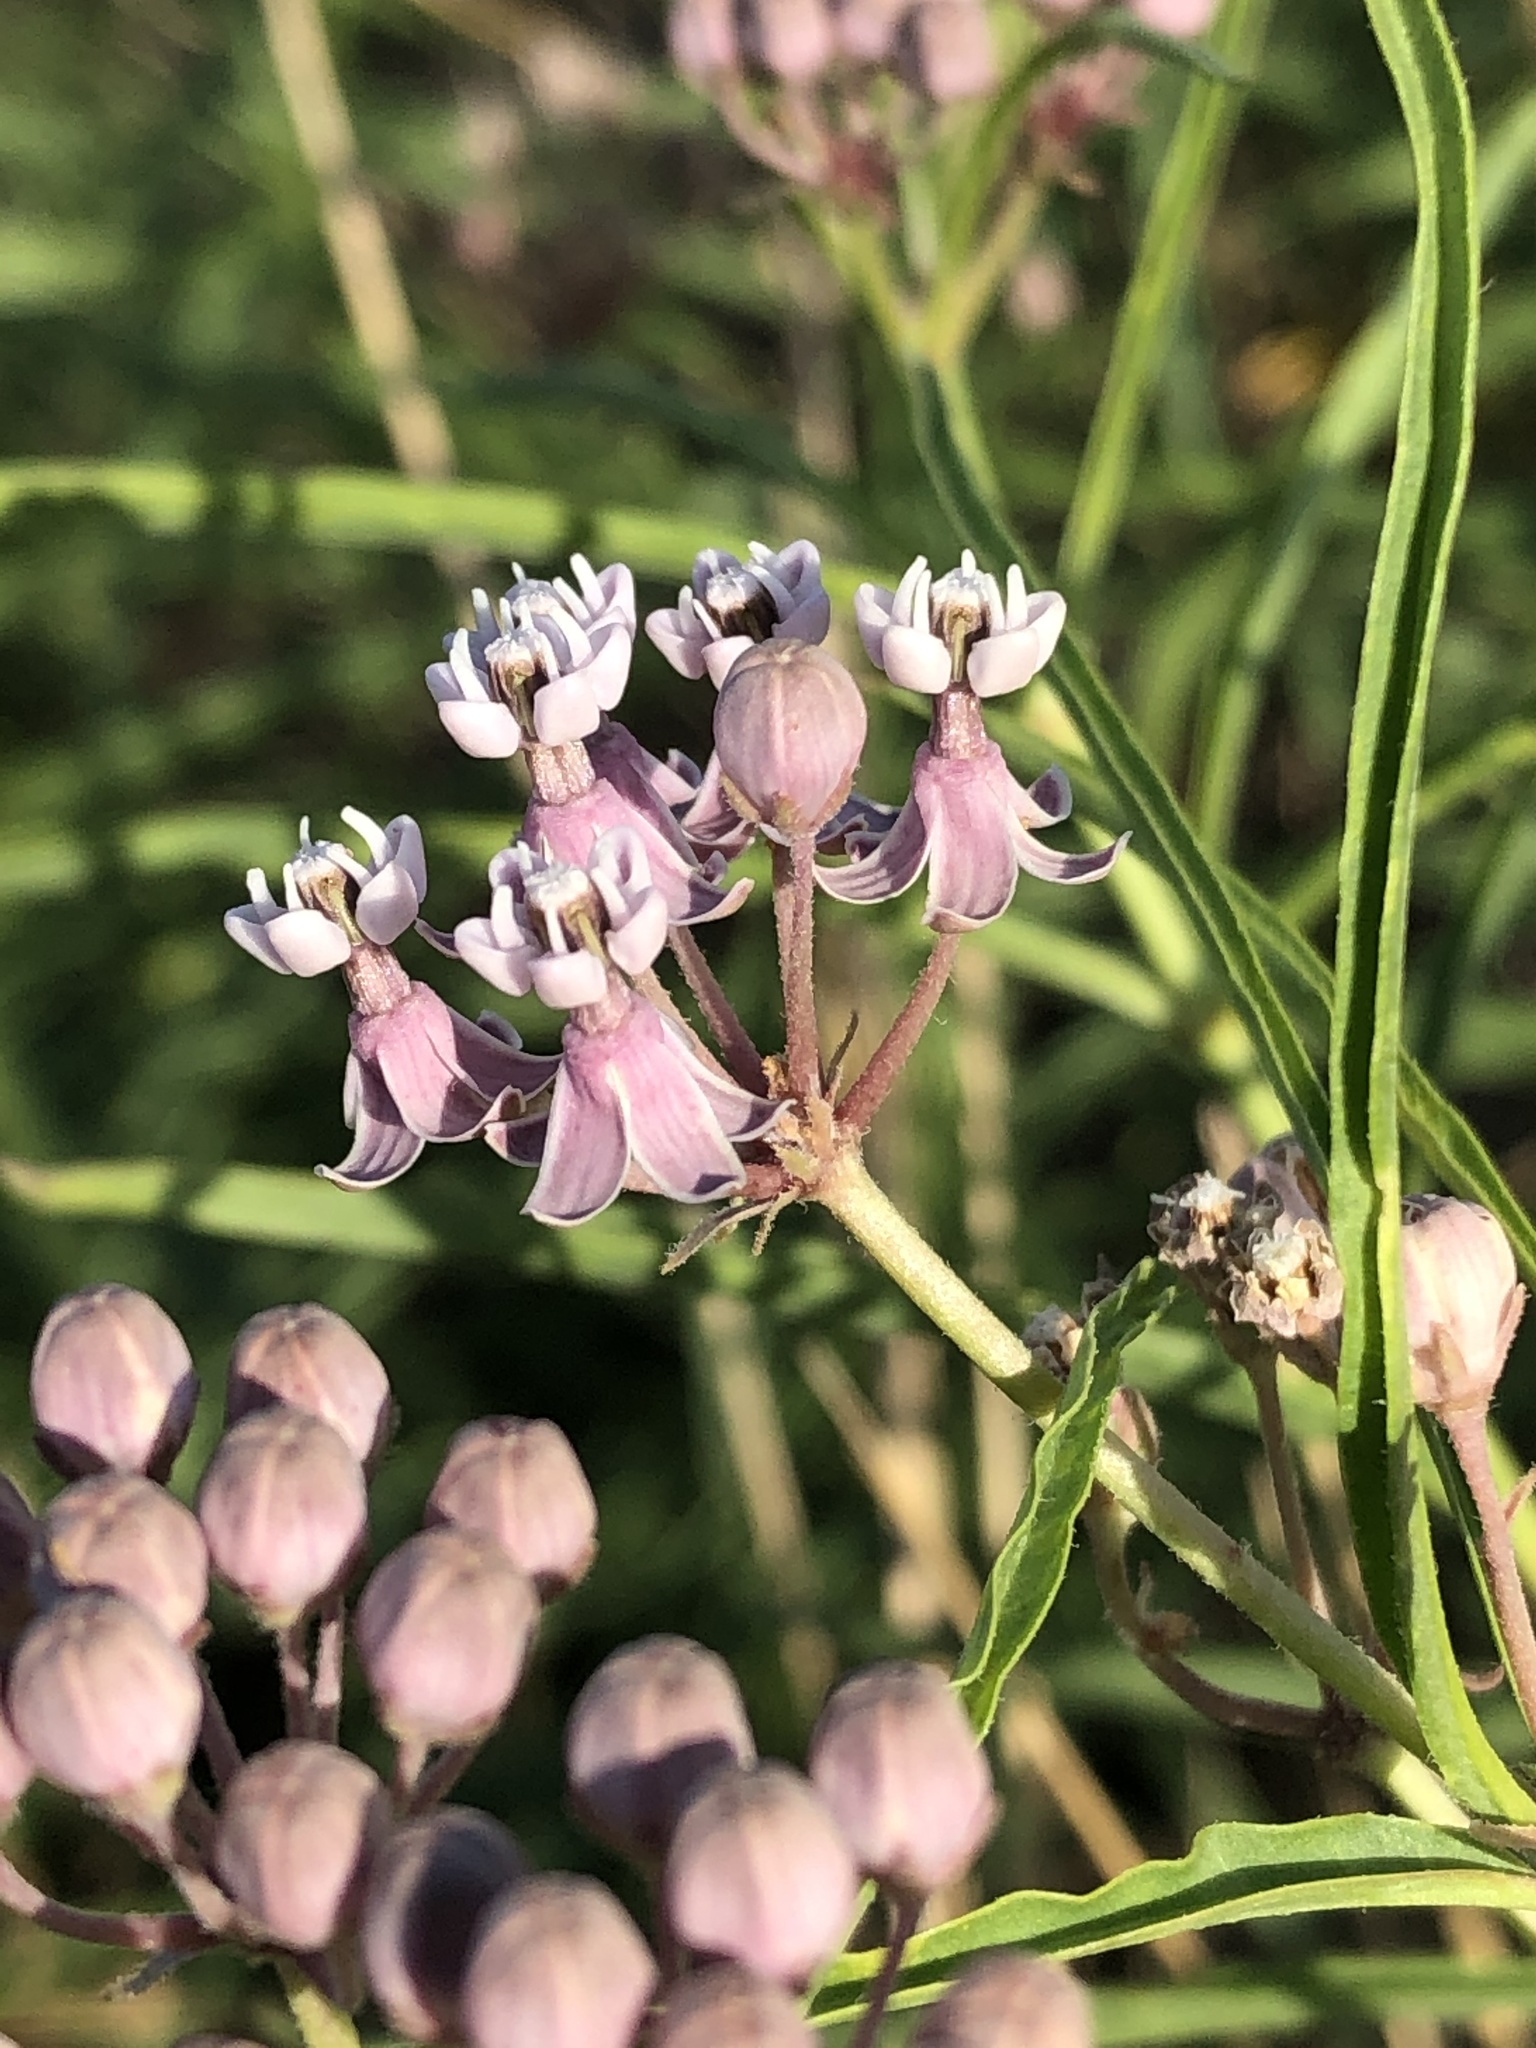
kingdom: Plantae
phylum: Tracheophyta
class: Magnoliopsida
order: Gentianales
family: Apocynaceae
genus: Asclepias
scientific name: Asclepias fascicularis
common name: Mexican milkweed
